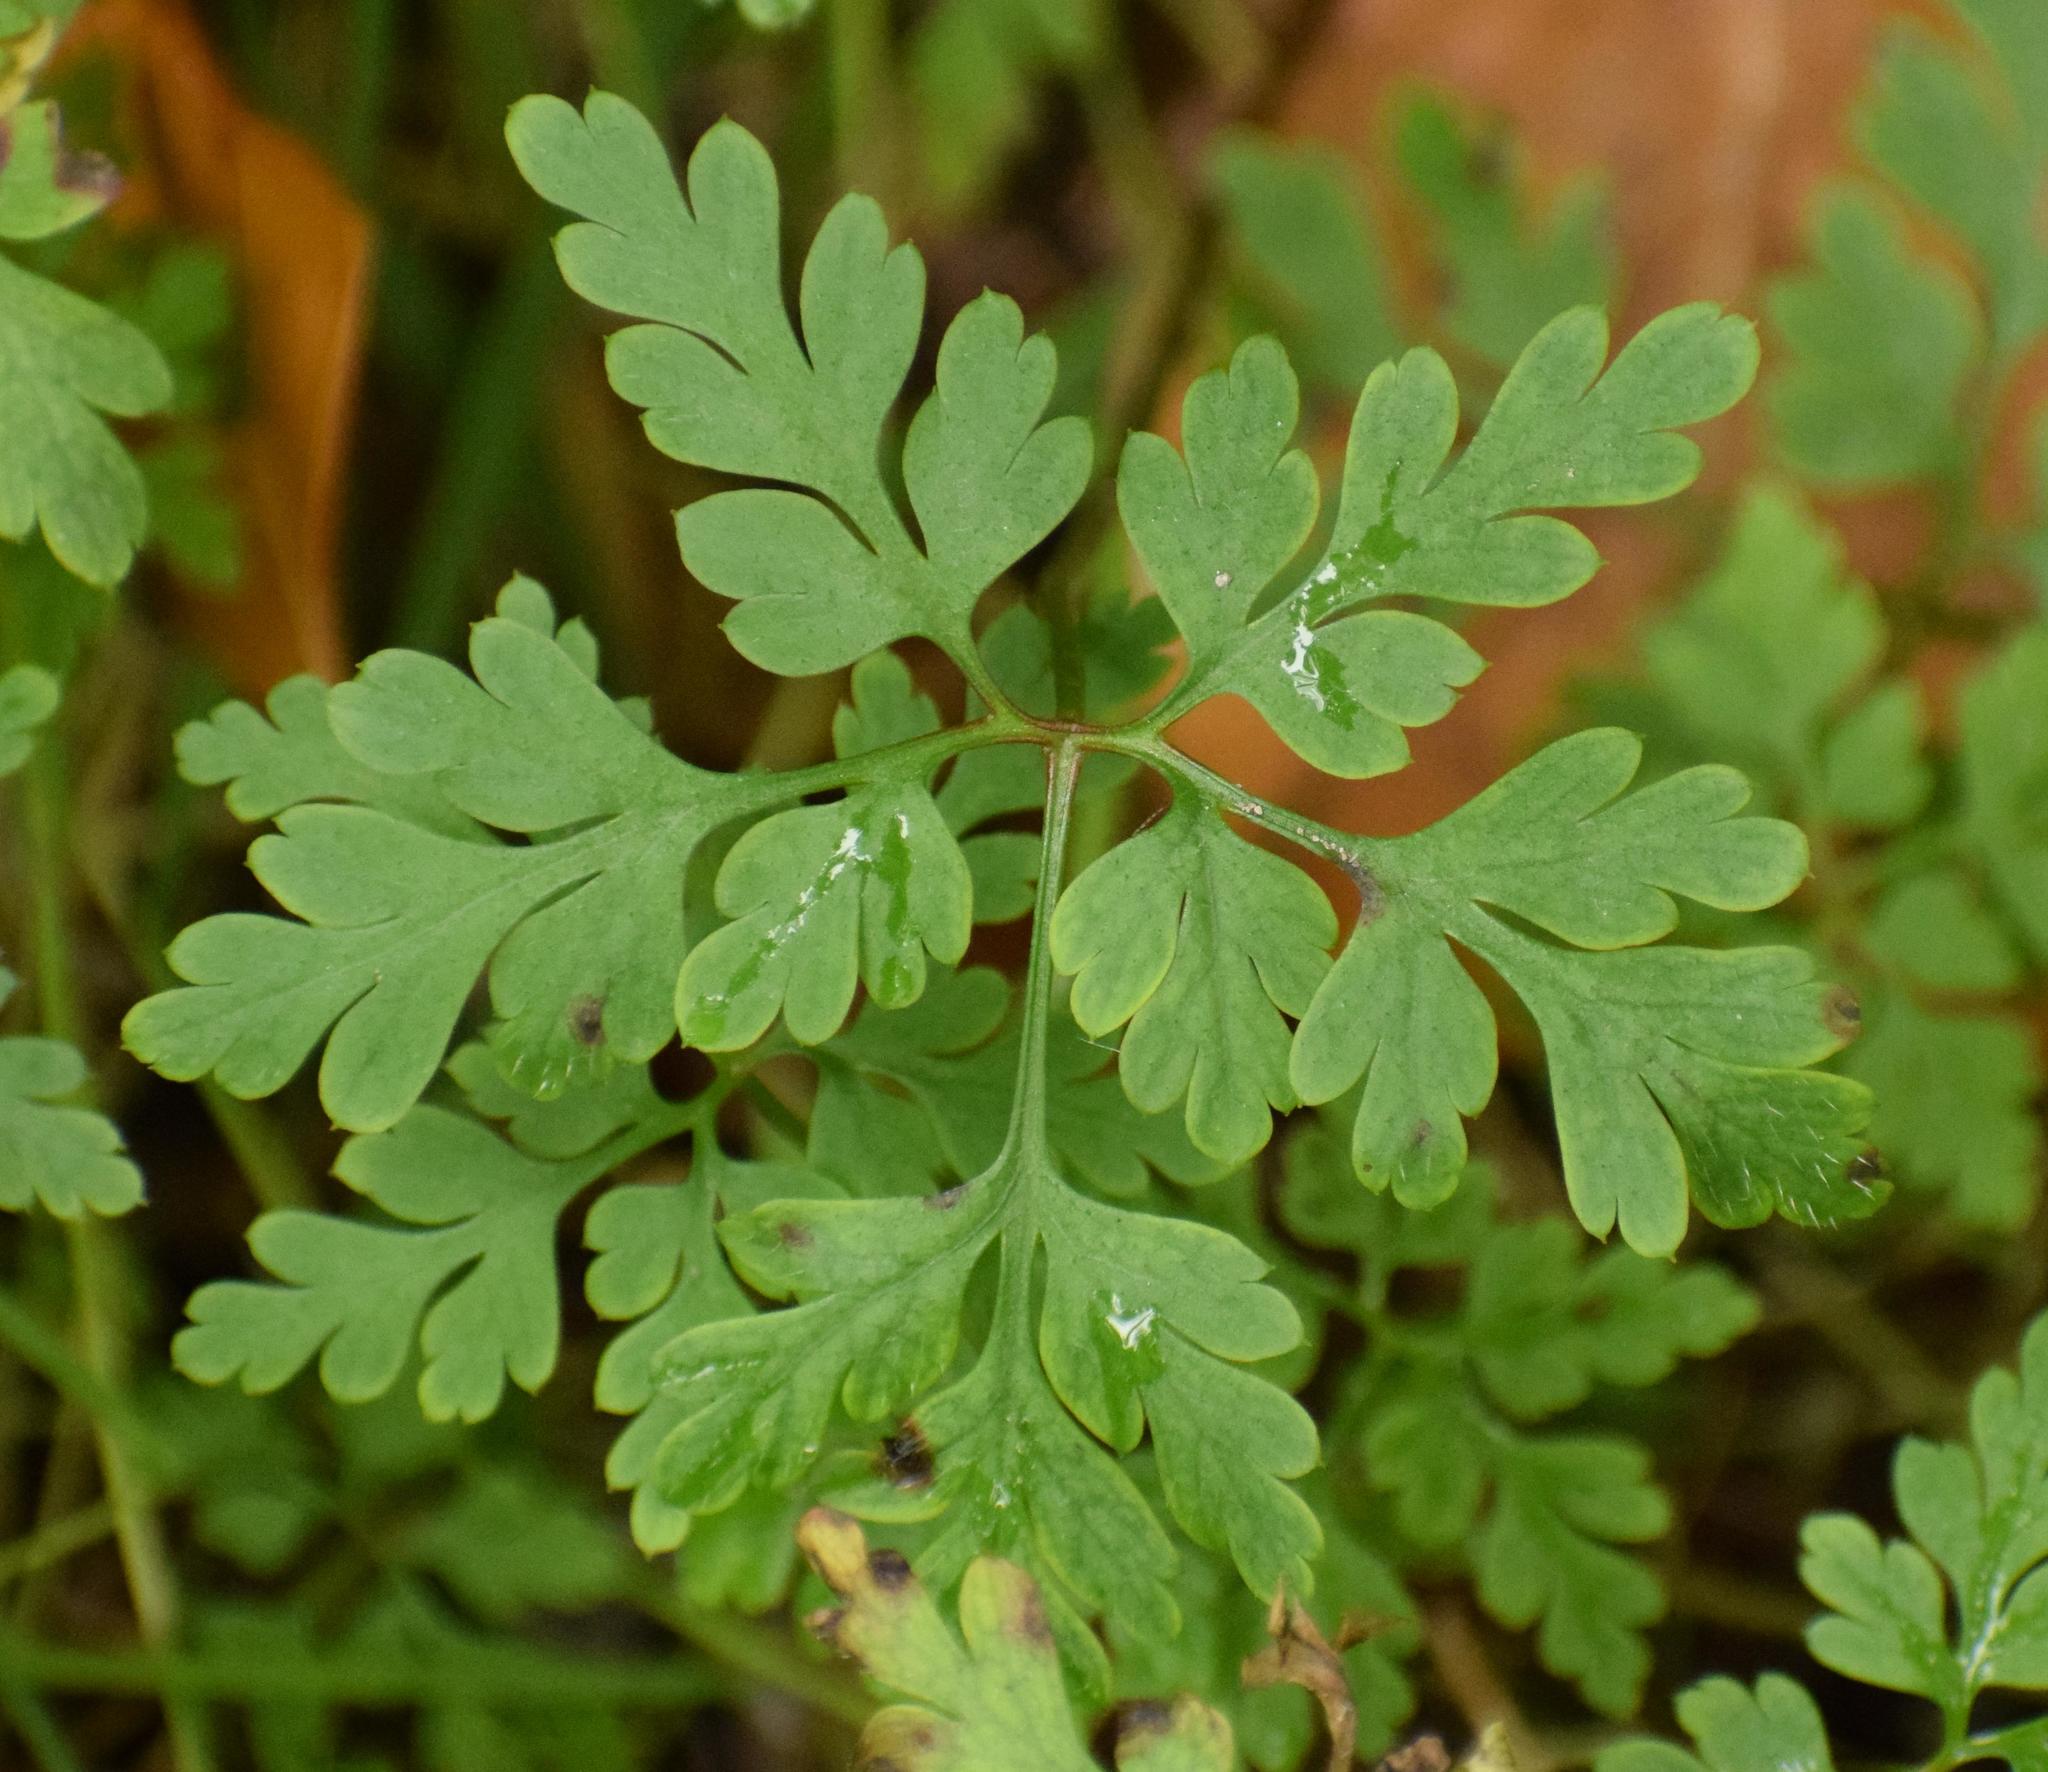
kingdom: Plantae
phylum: Tracheophyta
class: Magnoliopsida
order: Geraniales
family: Geraniaceae
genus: Geranium
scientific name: Geranium robertianum
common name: Herb-robert
